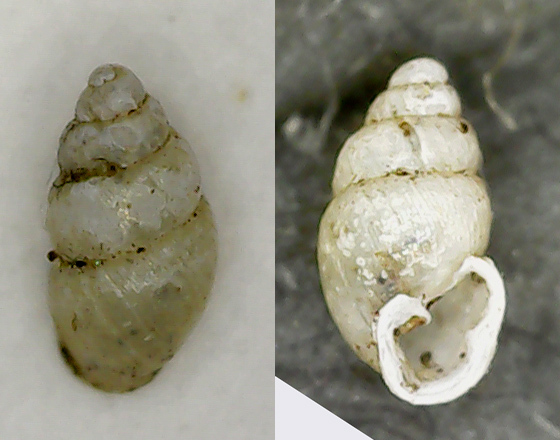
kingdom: Animalia
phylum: Mollusca
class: Gastropoda
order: Ellobiida
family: Ellobiidae
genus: Carychium
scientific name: Carychium minimum
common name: Short-toothed herald snail
